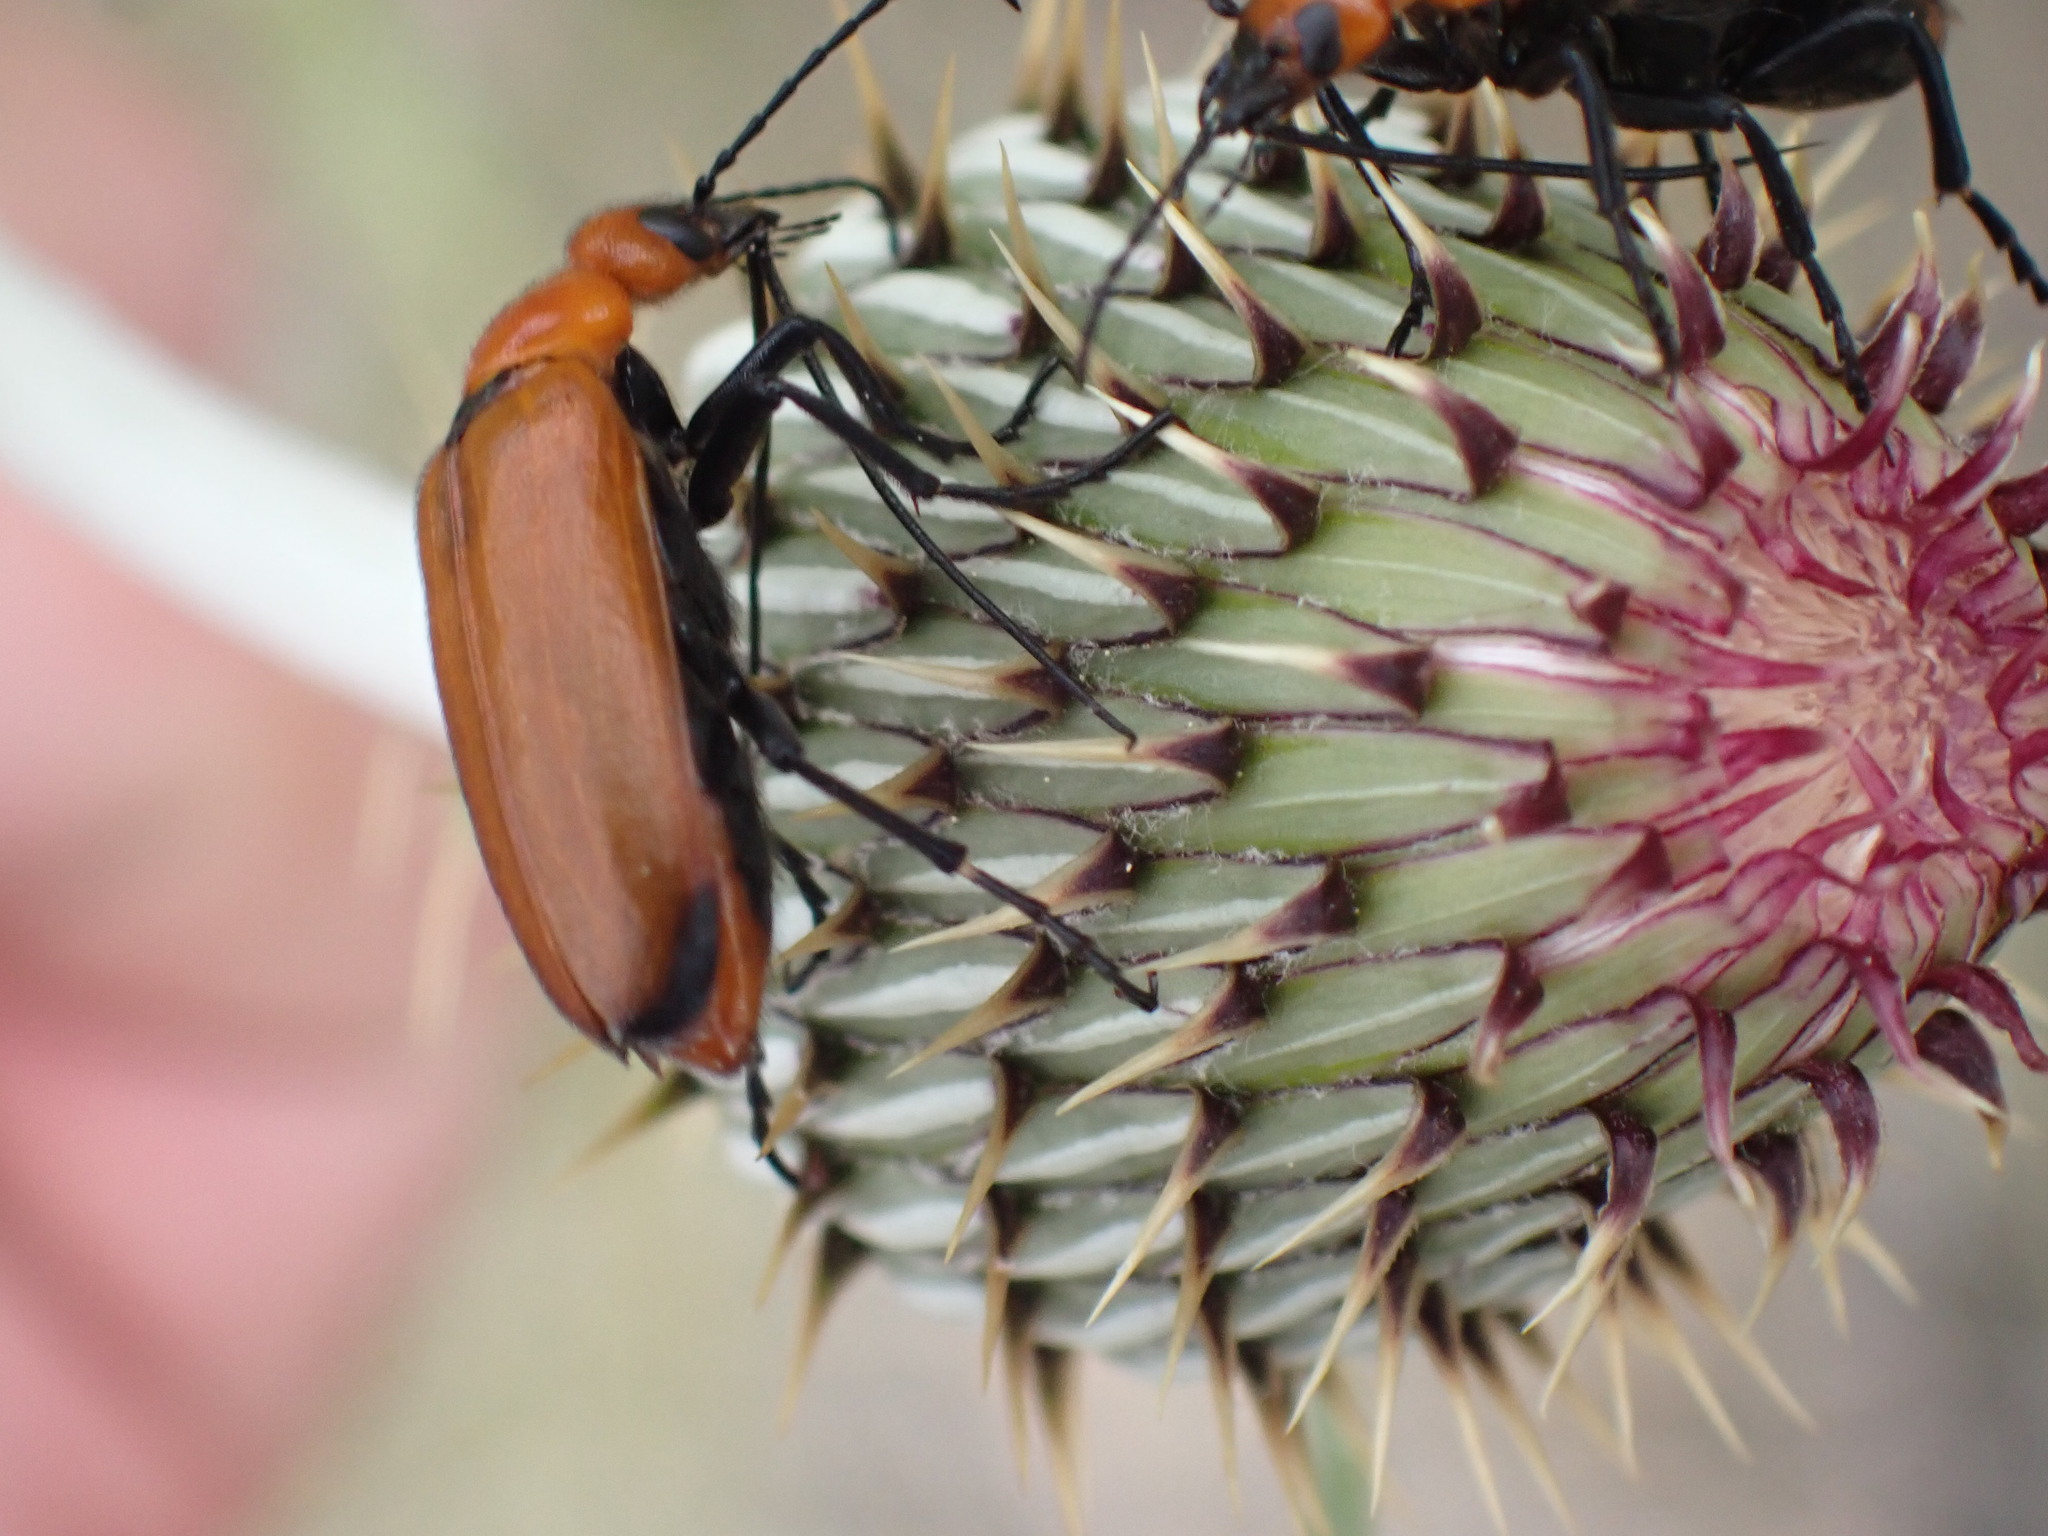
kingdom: Animalia
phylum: Arthropoda
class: Insecta
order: Coleoptera
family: Meloidae
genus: Nemognatha
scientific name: Nemognatha lutea
